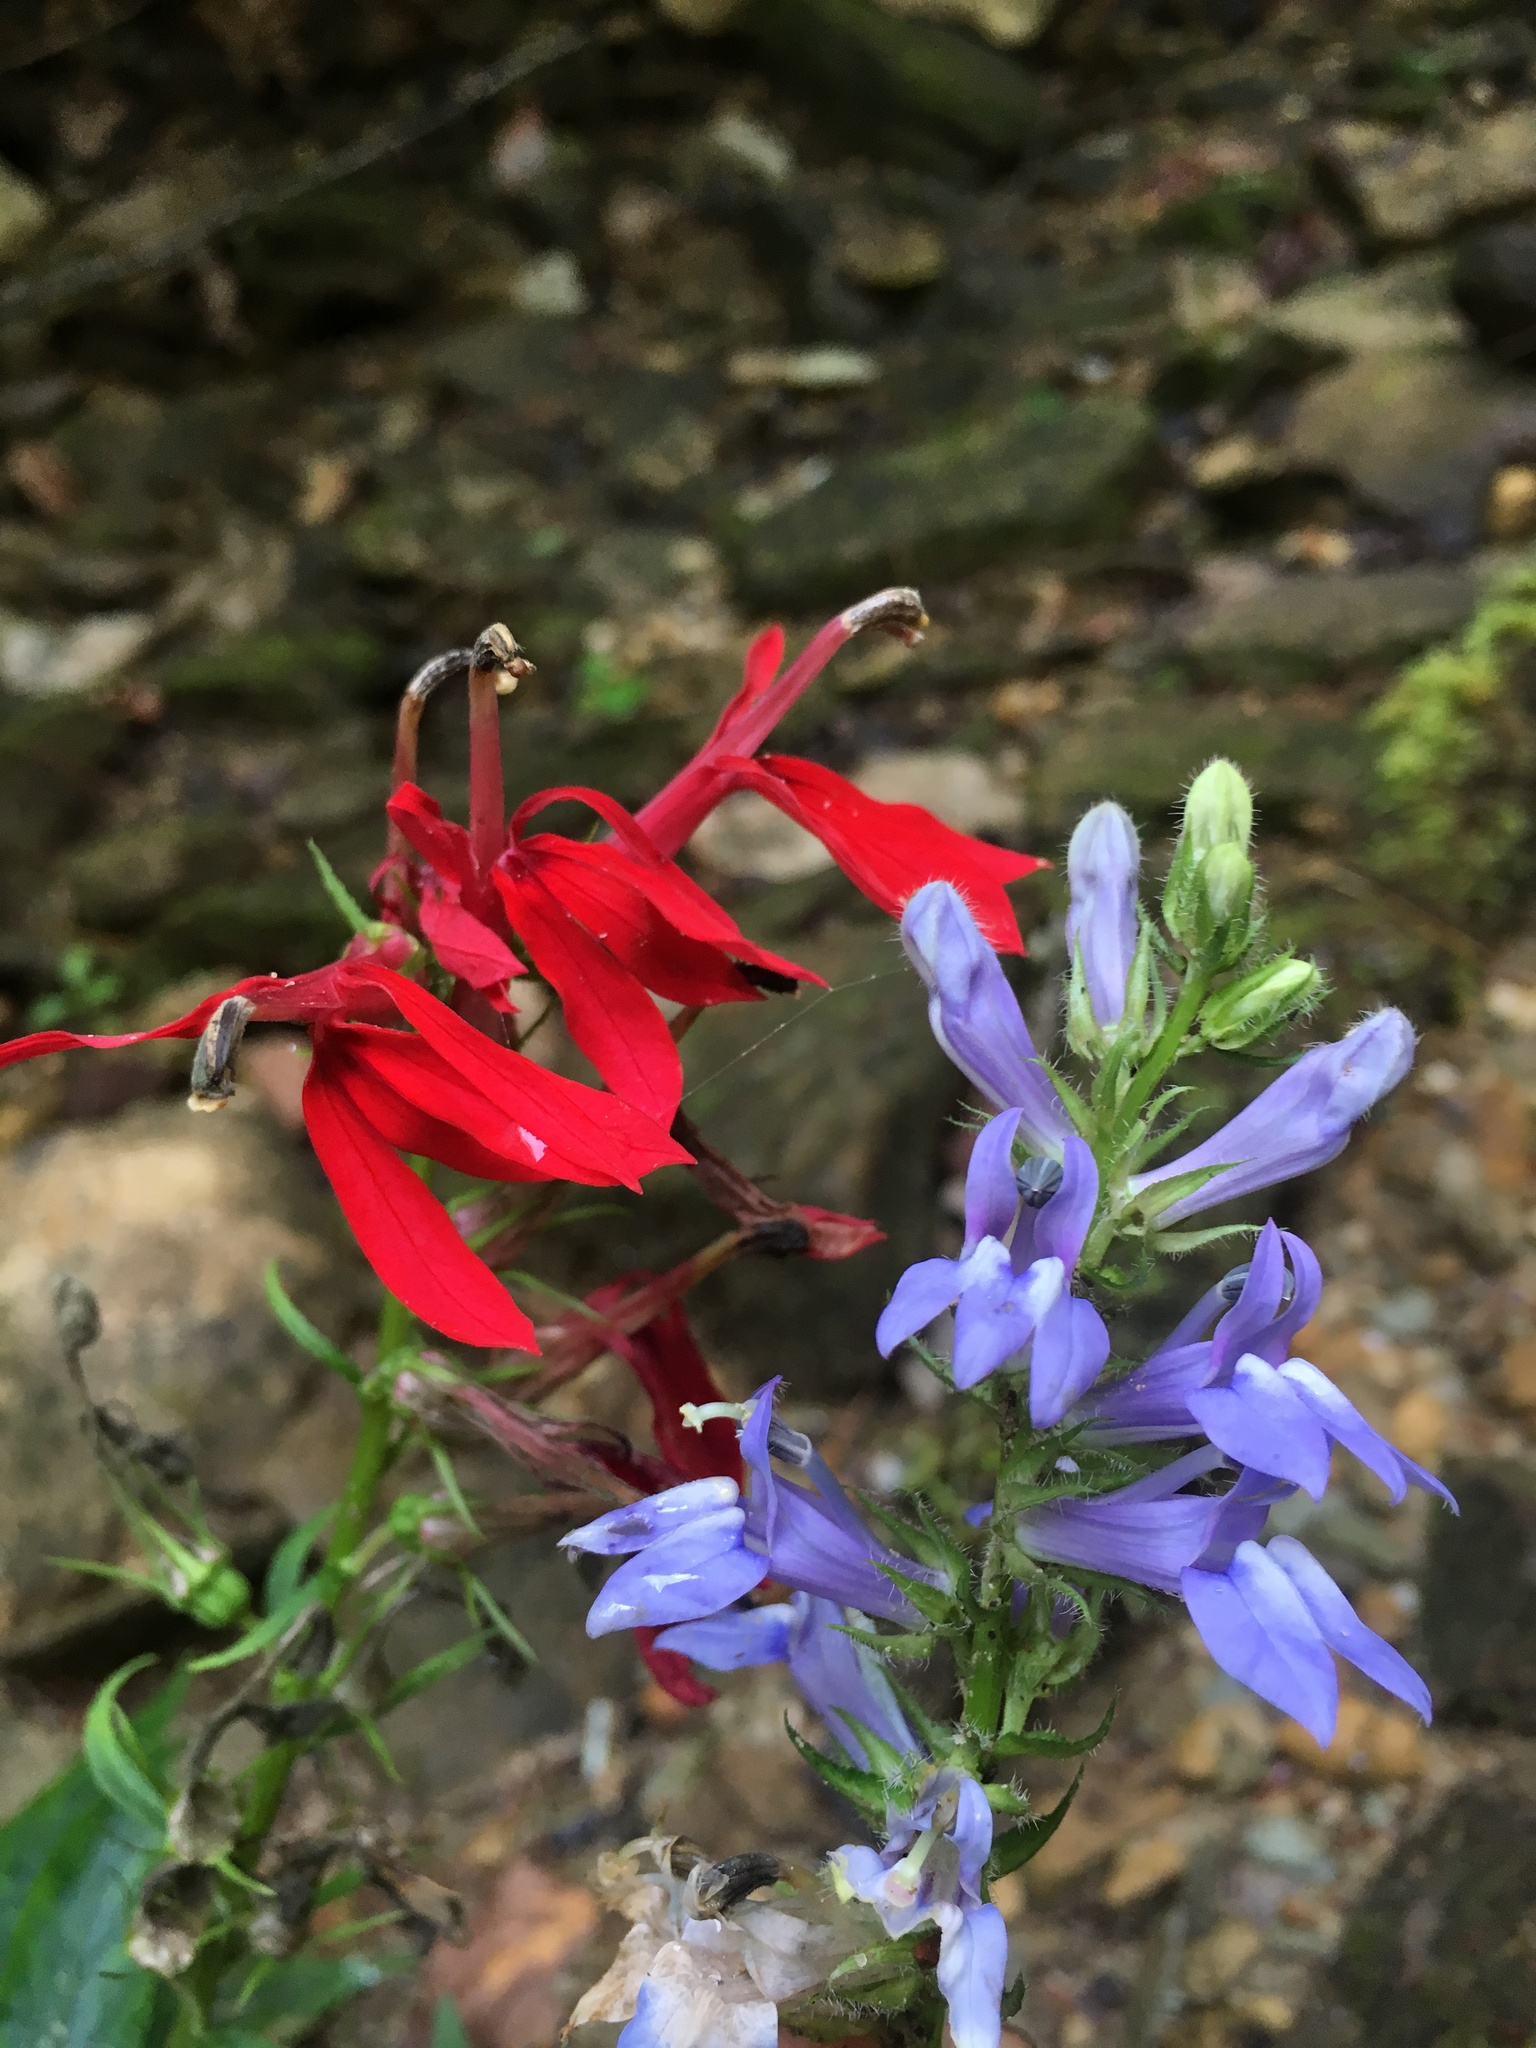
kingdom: Plantae
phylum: Tracheophyta
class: Magnoliopsida
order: Asterales
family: Campanulaceae
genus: Lobelia
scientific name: Lobelia cardinalis
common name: Cardinal flower
